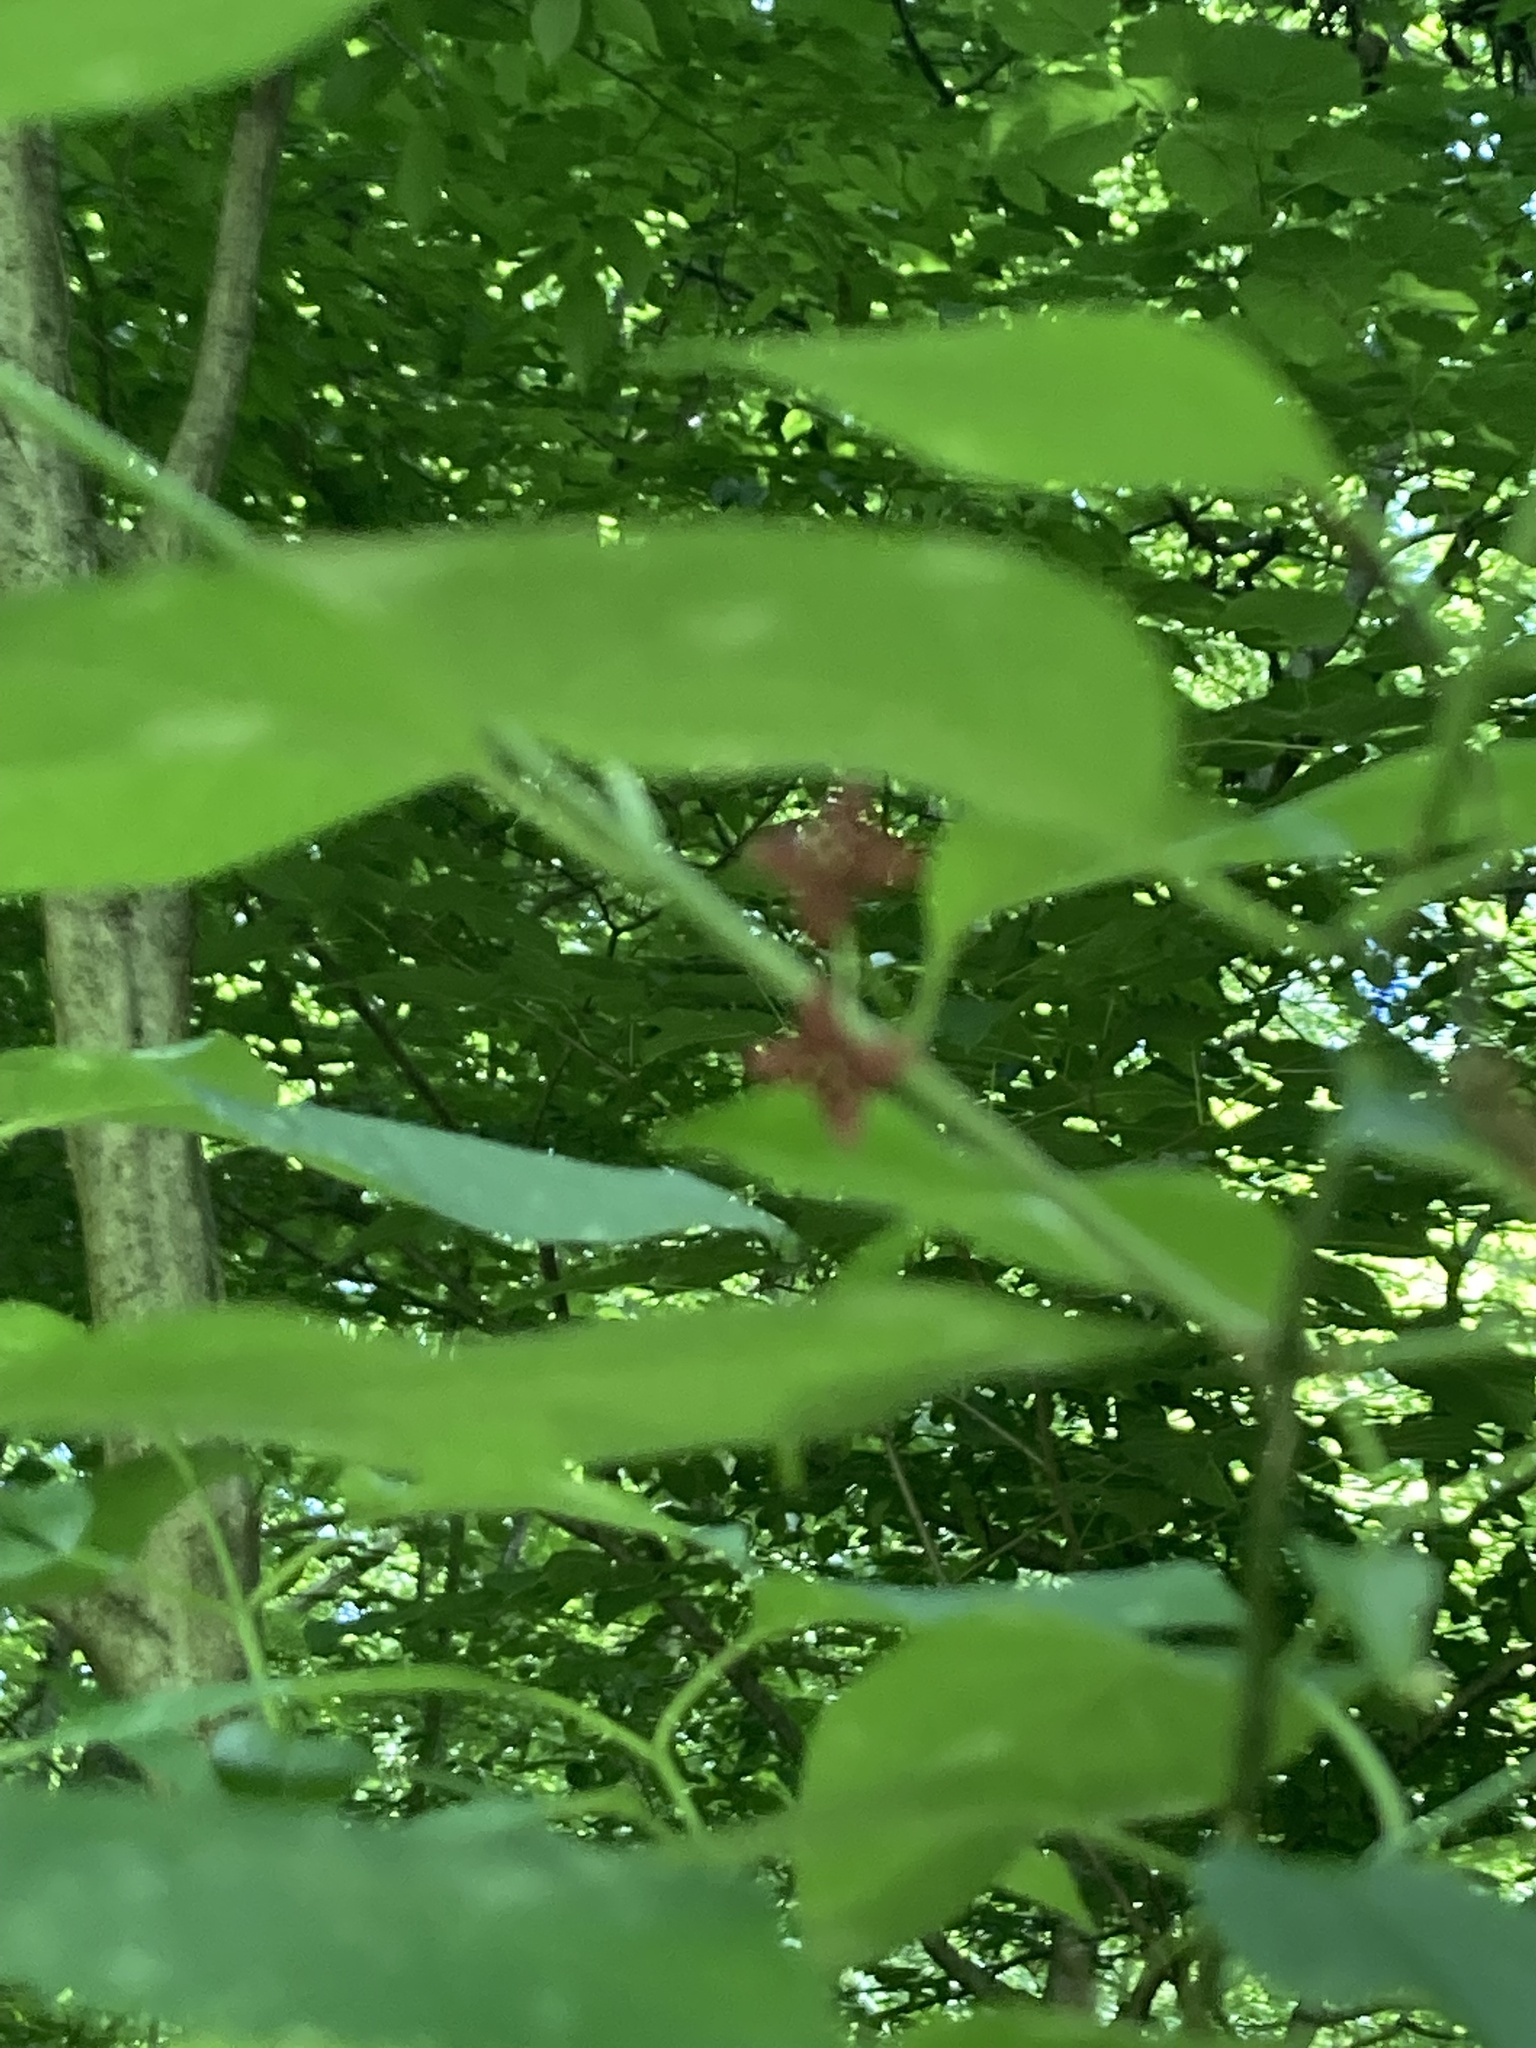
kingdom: Plantae
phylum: Tracheophyta
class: Magnoliopsida
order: Celastrales
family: Celastraceae
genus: Euonymus
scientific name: Euonymus atropurpureus
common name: Eastern wahoo
